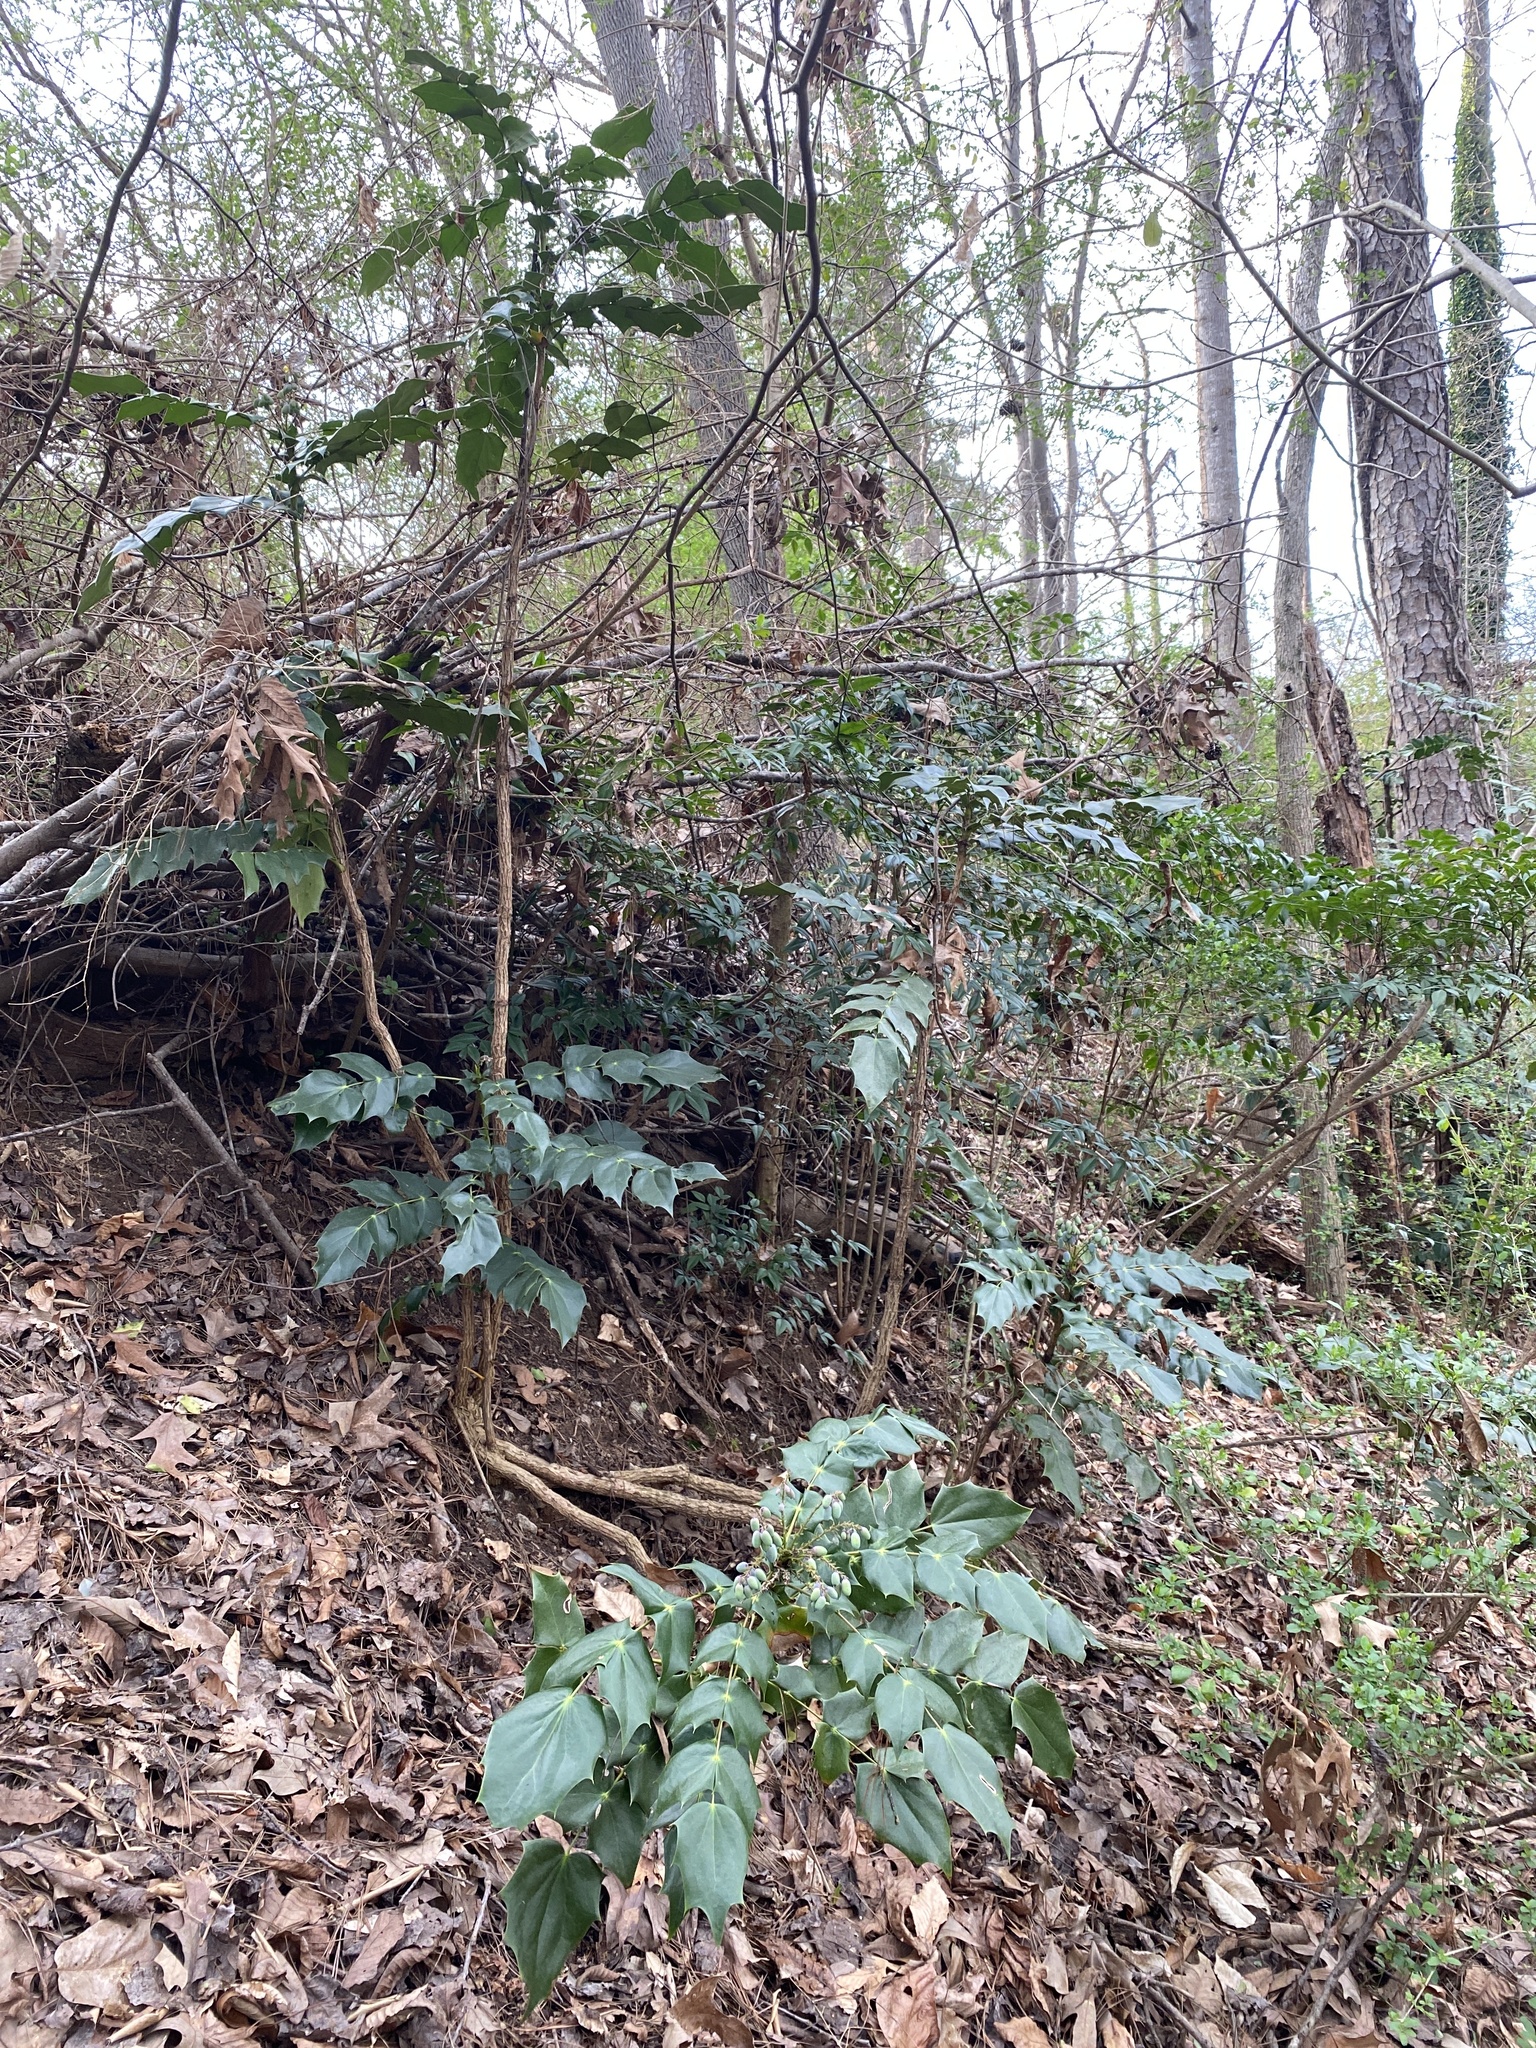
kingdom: Plantae
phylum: Tracheophyta
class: Magnoliopsida
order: Ranunculales
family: Berberidaceae
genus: Mahonia
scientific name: Mahonia bealei
